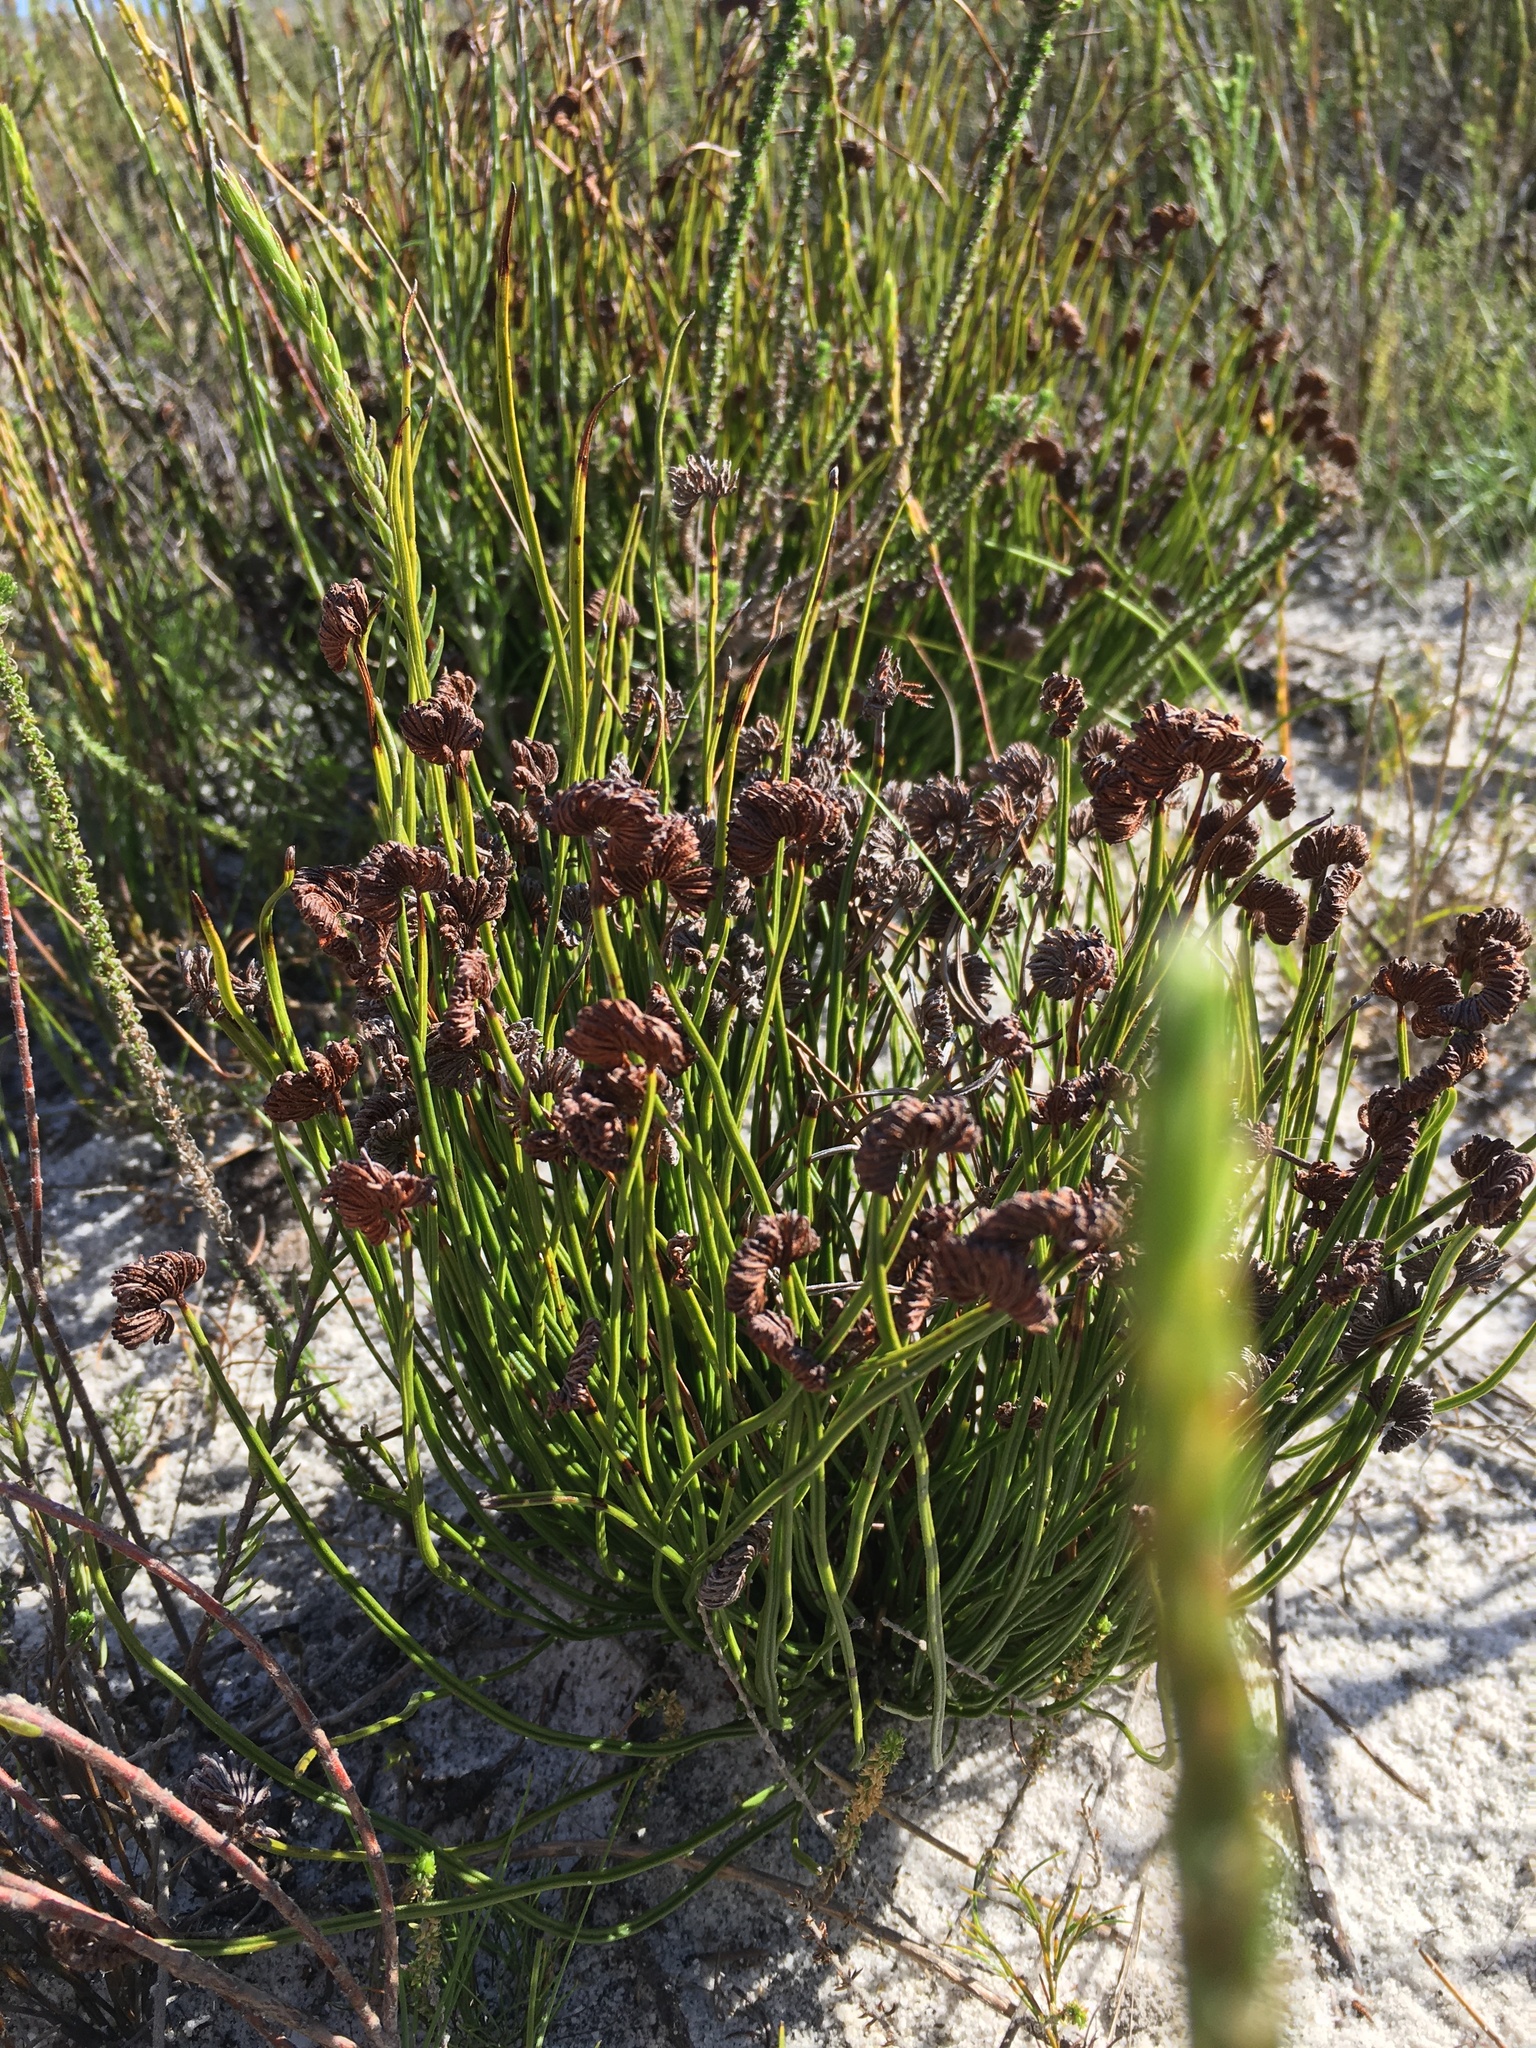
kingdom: Plantae
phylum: Tracheophyta
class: Polypodiopsida
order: Schizaeales
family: Schizaeaceae
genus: Schizaea
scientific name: Schizaea pectinata
